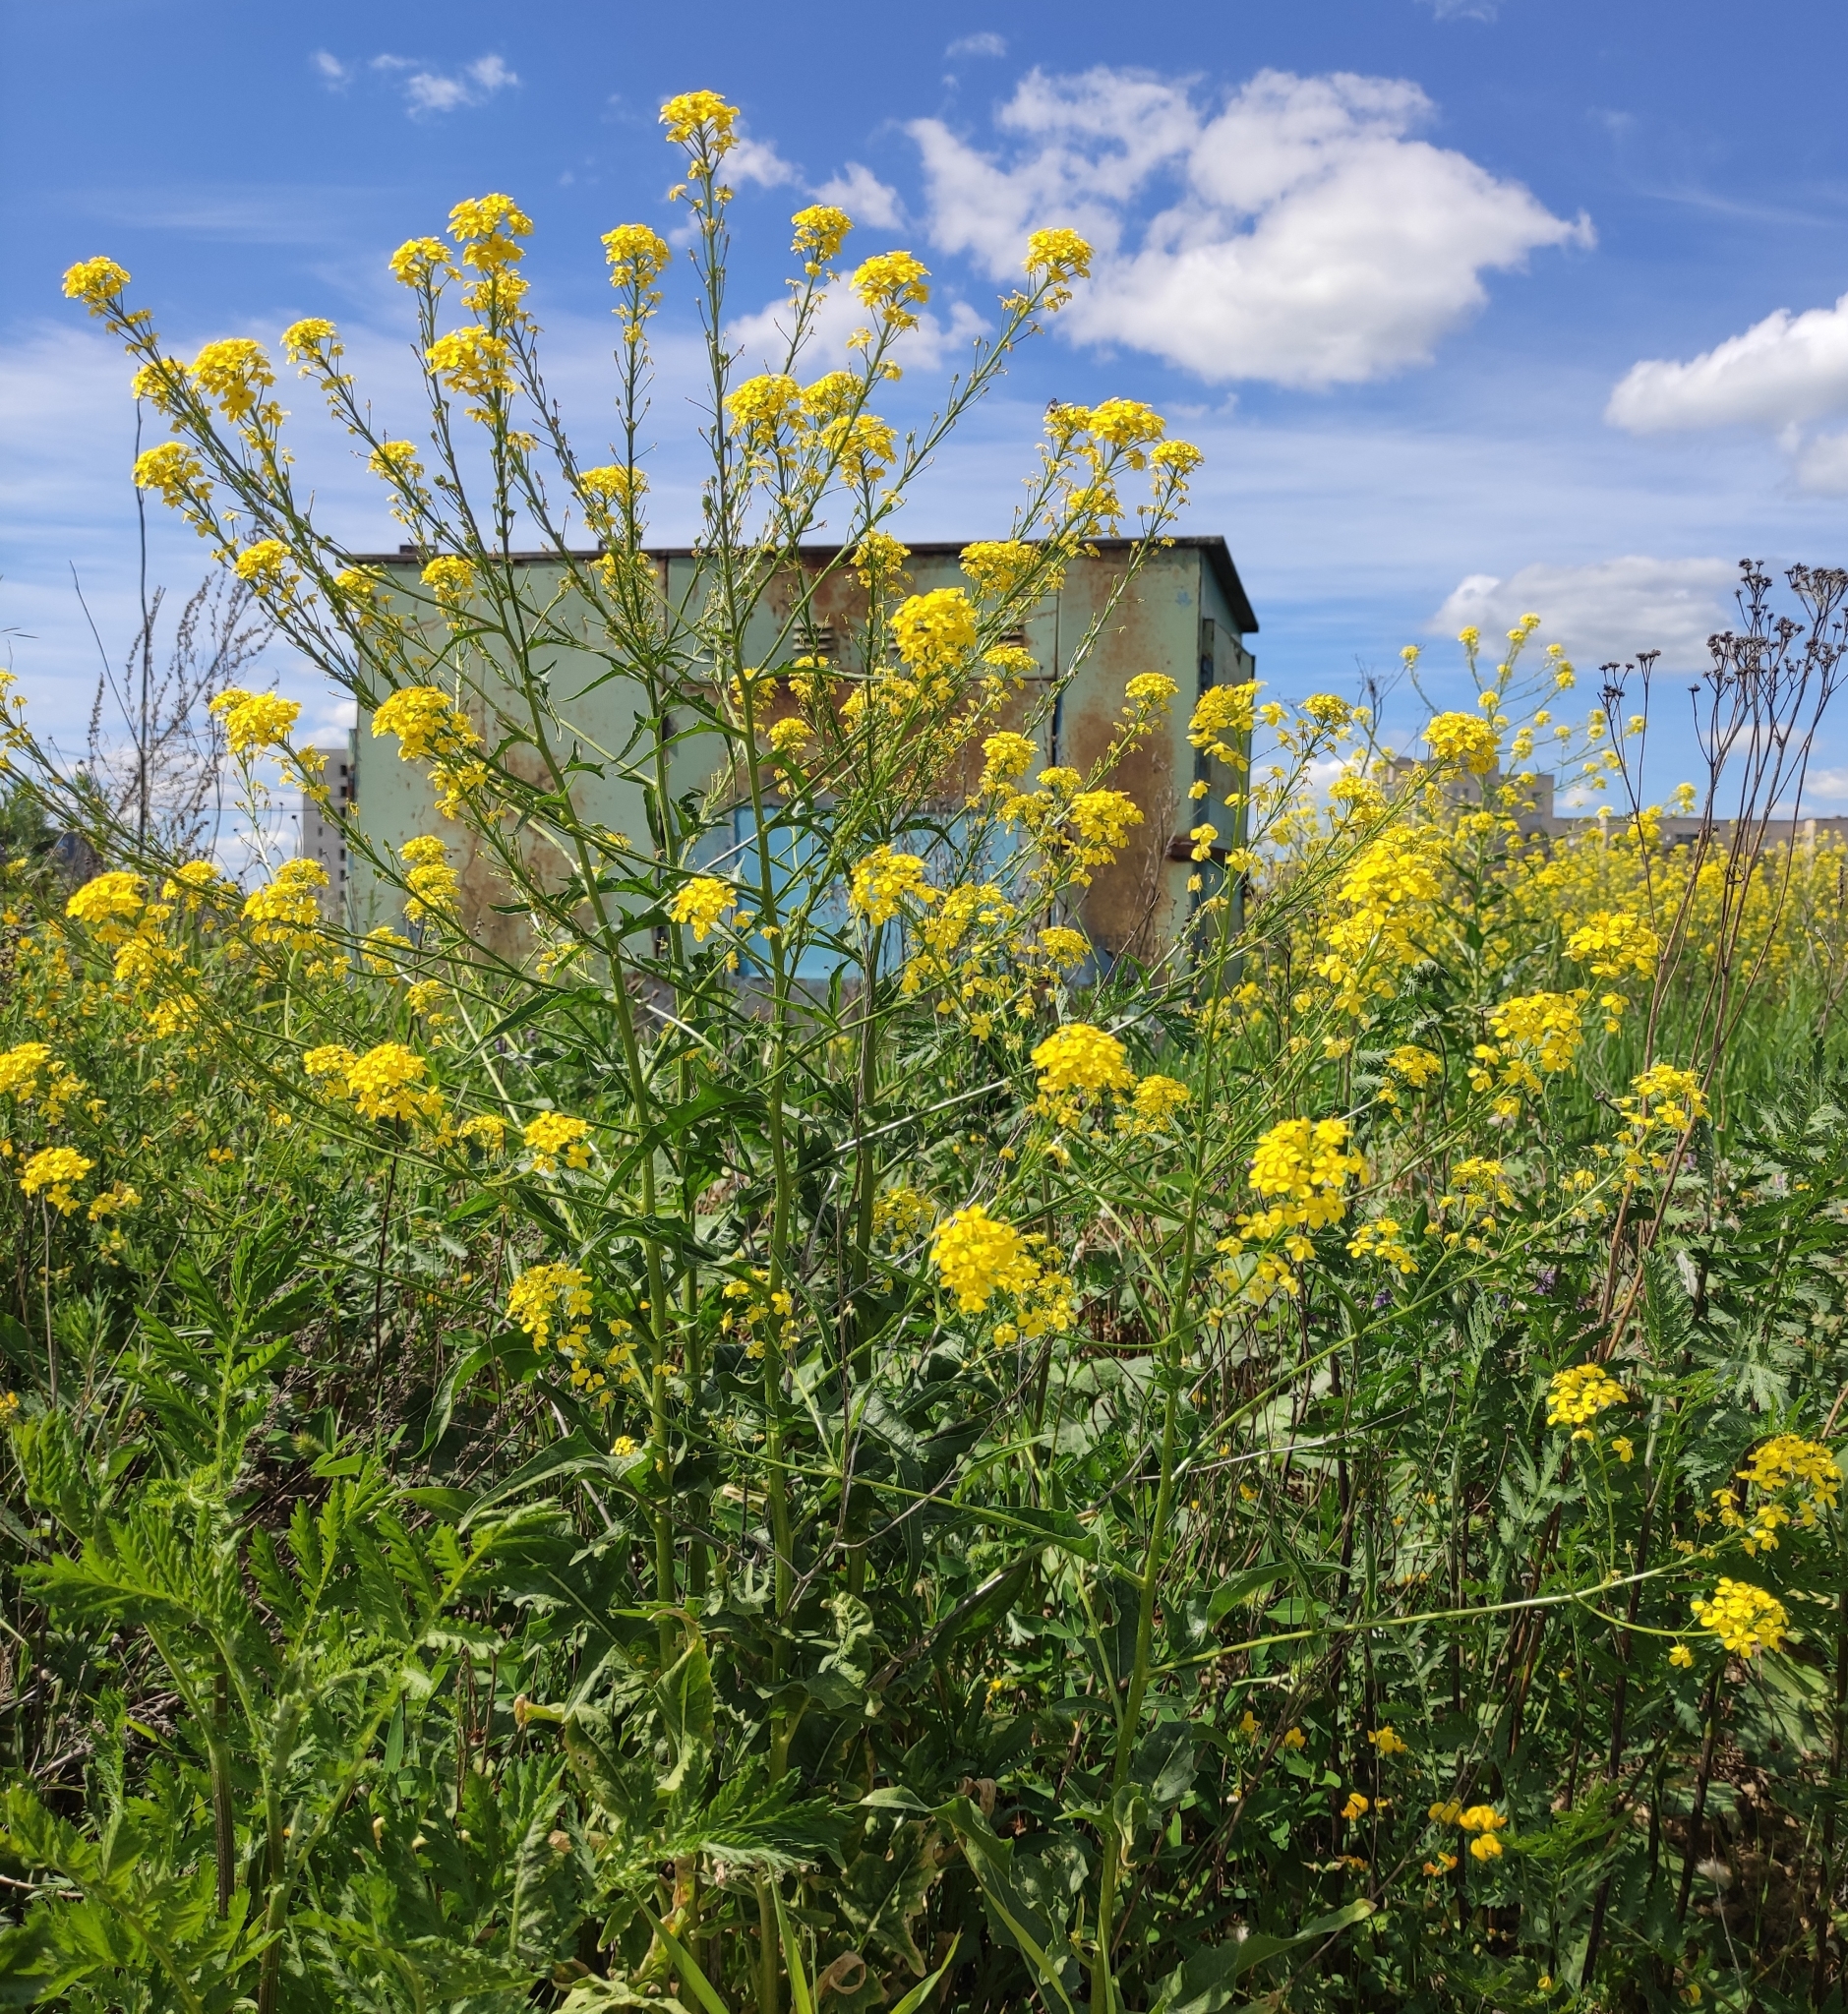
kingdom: Plantae
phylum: Tracheophyta
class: Magnoliopsida
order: Brassicales
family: Brassicaceae
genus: Bunias
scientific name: Bunias orientalis
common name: Warty-cabbage
